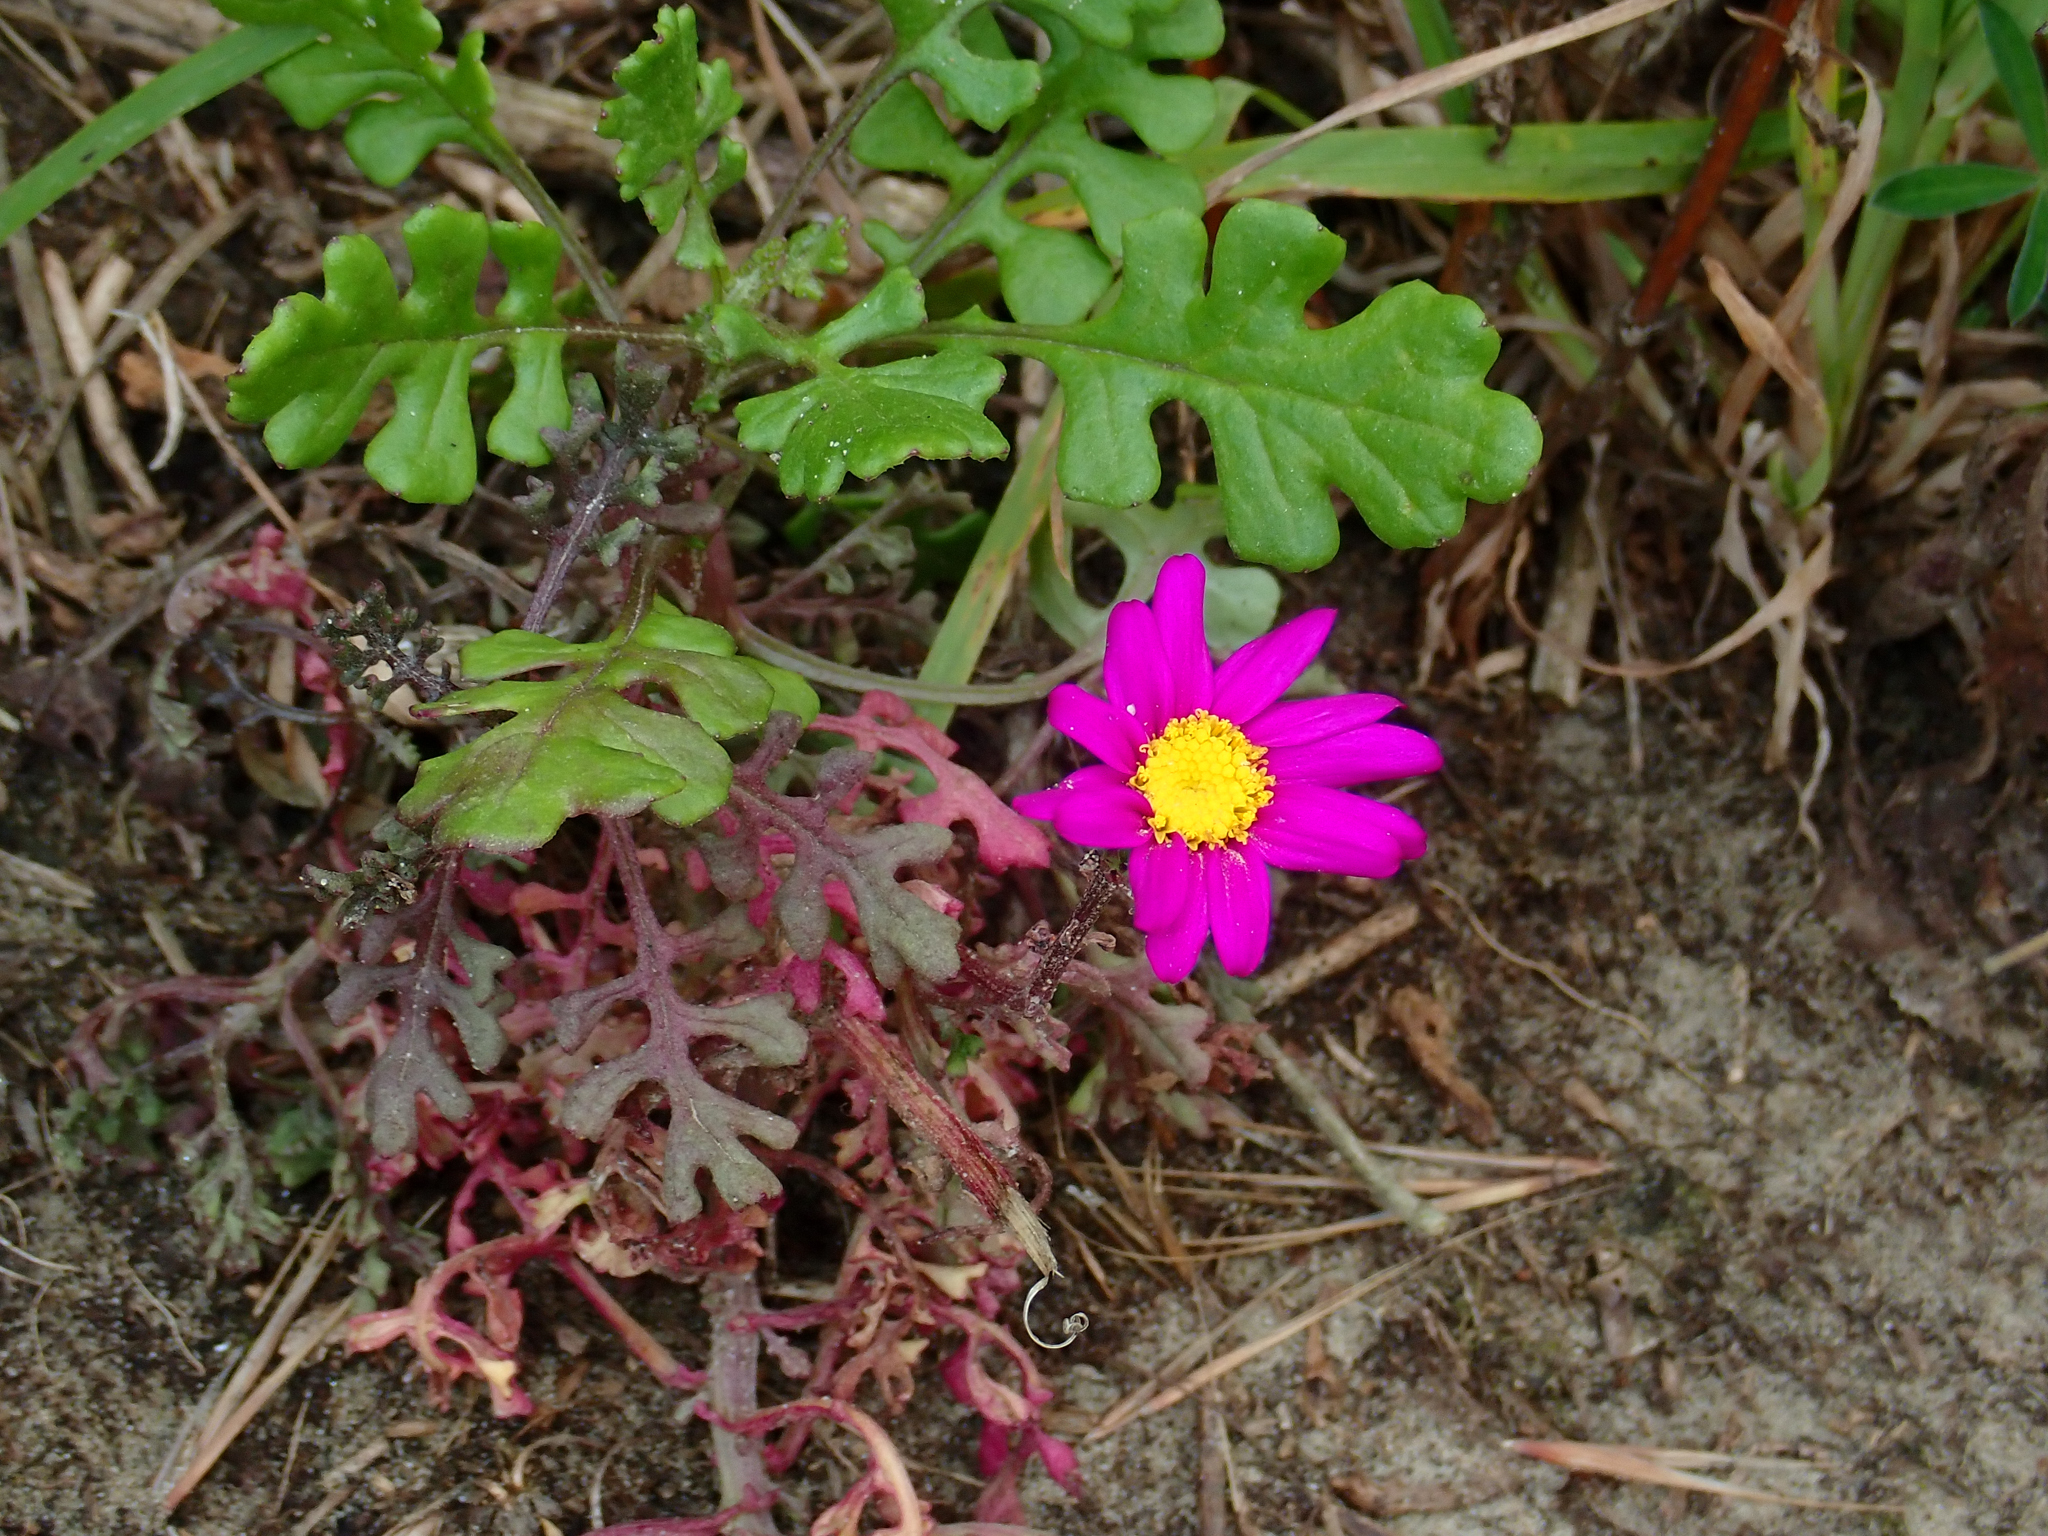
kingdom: Plantae
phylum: Tracheophyta
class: Magnoliopsida
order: Asterales
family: Asteraceae
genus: Senecio
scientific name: Senecio elegans
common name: Purple groundsel
